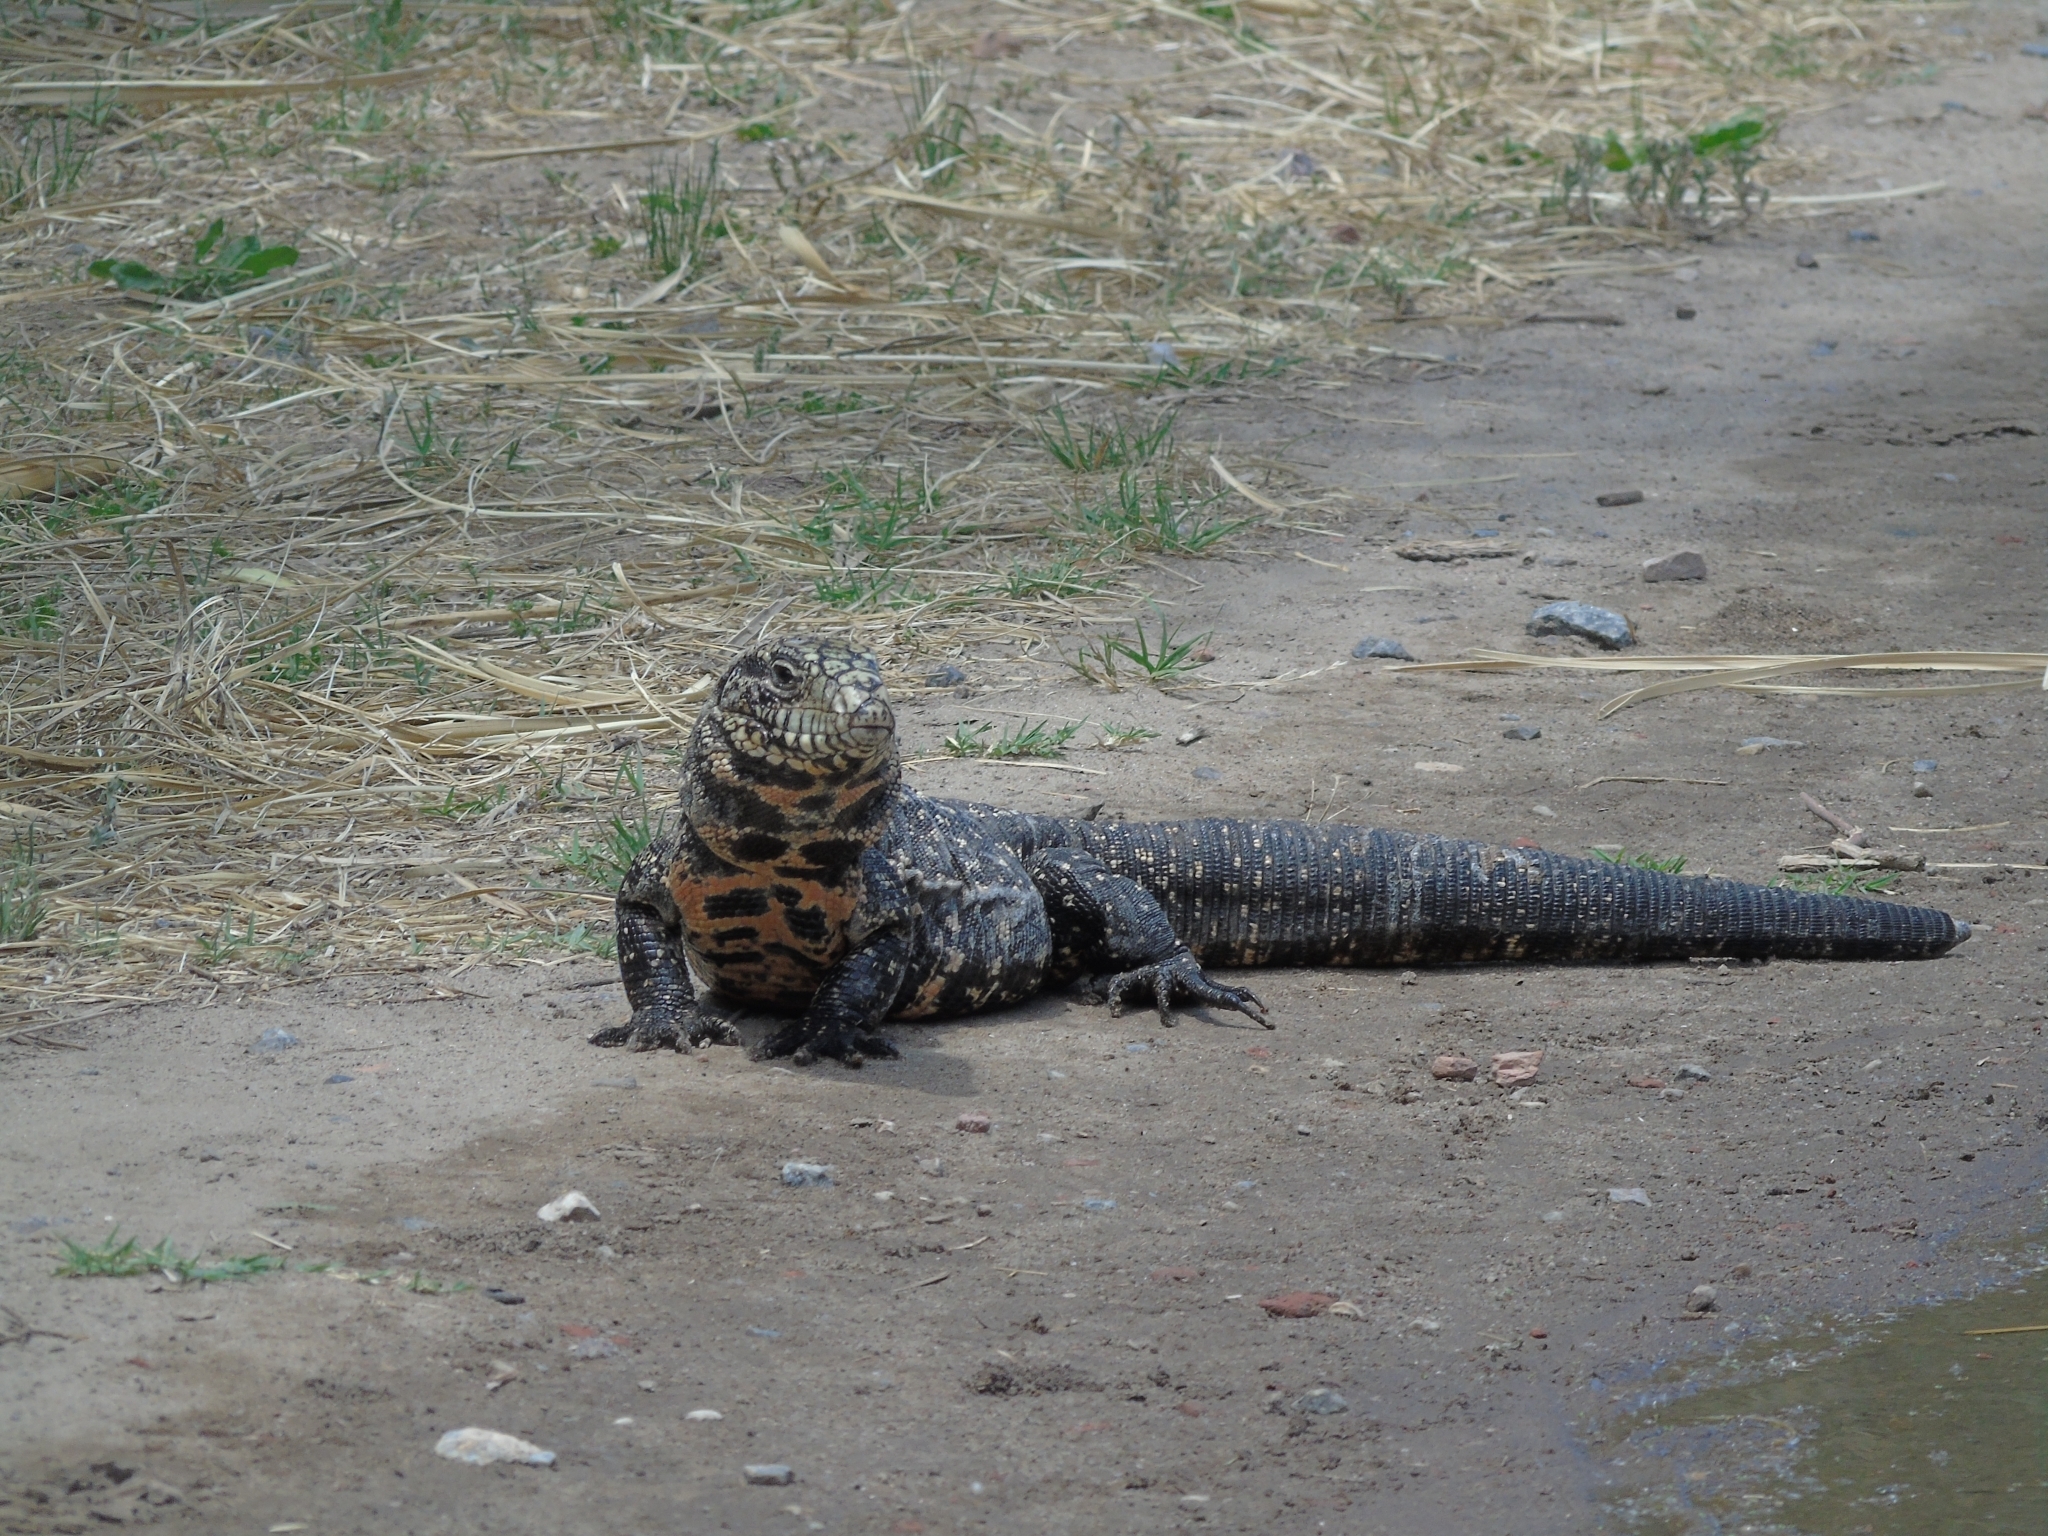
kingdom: Animalia
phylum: Chordata
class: Squamata
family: Teiidae
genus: Salvator
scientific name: Salvator merianae
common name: Argentine black and white tegu
